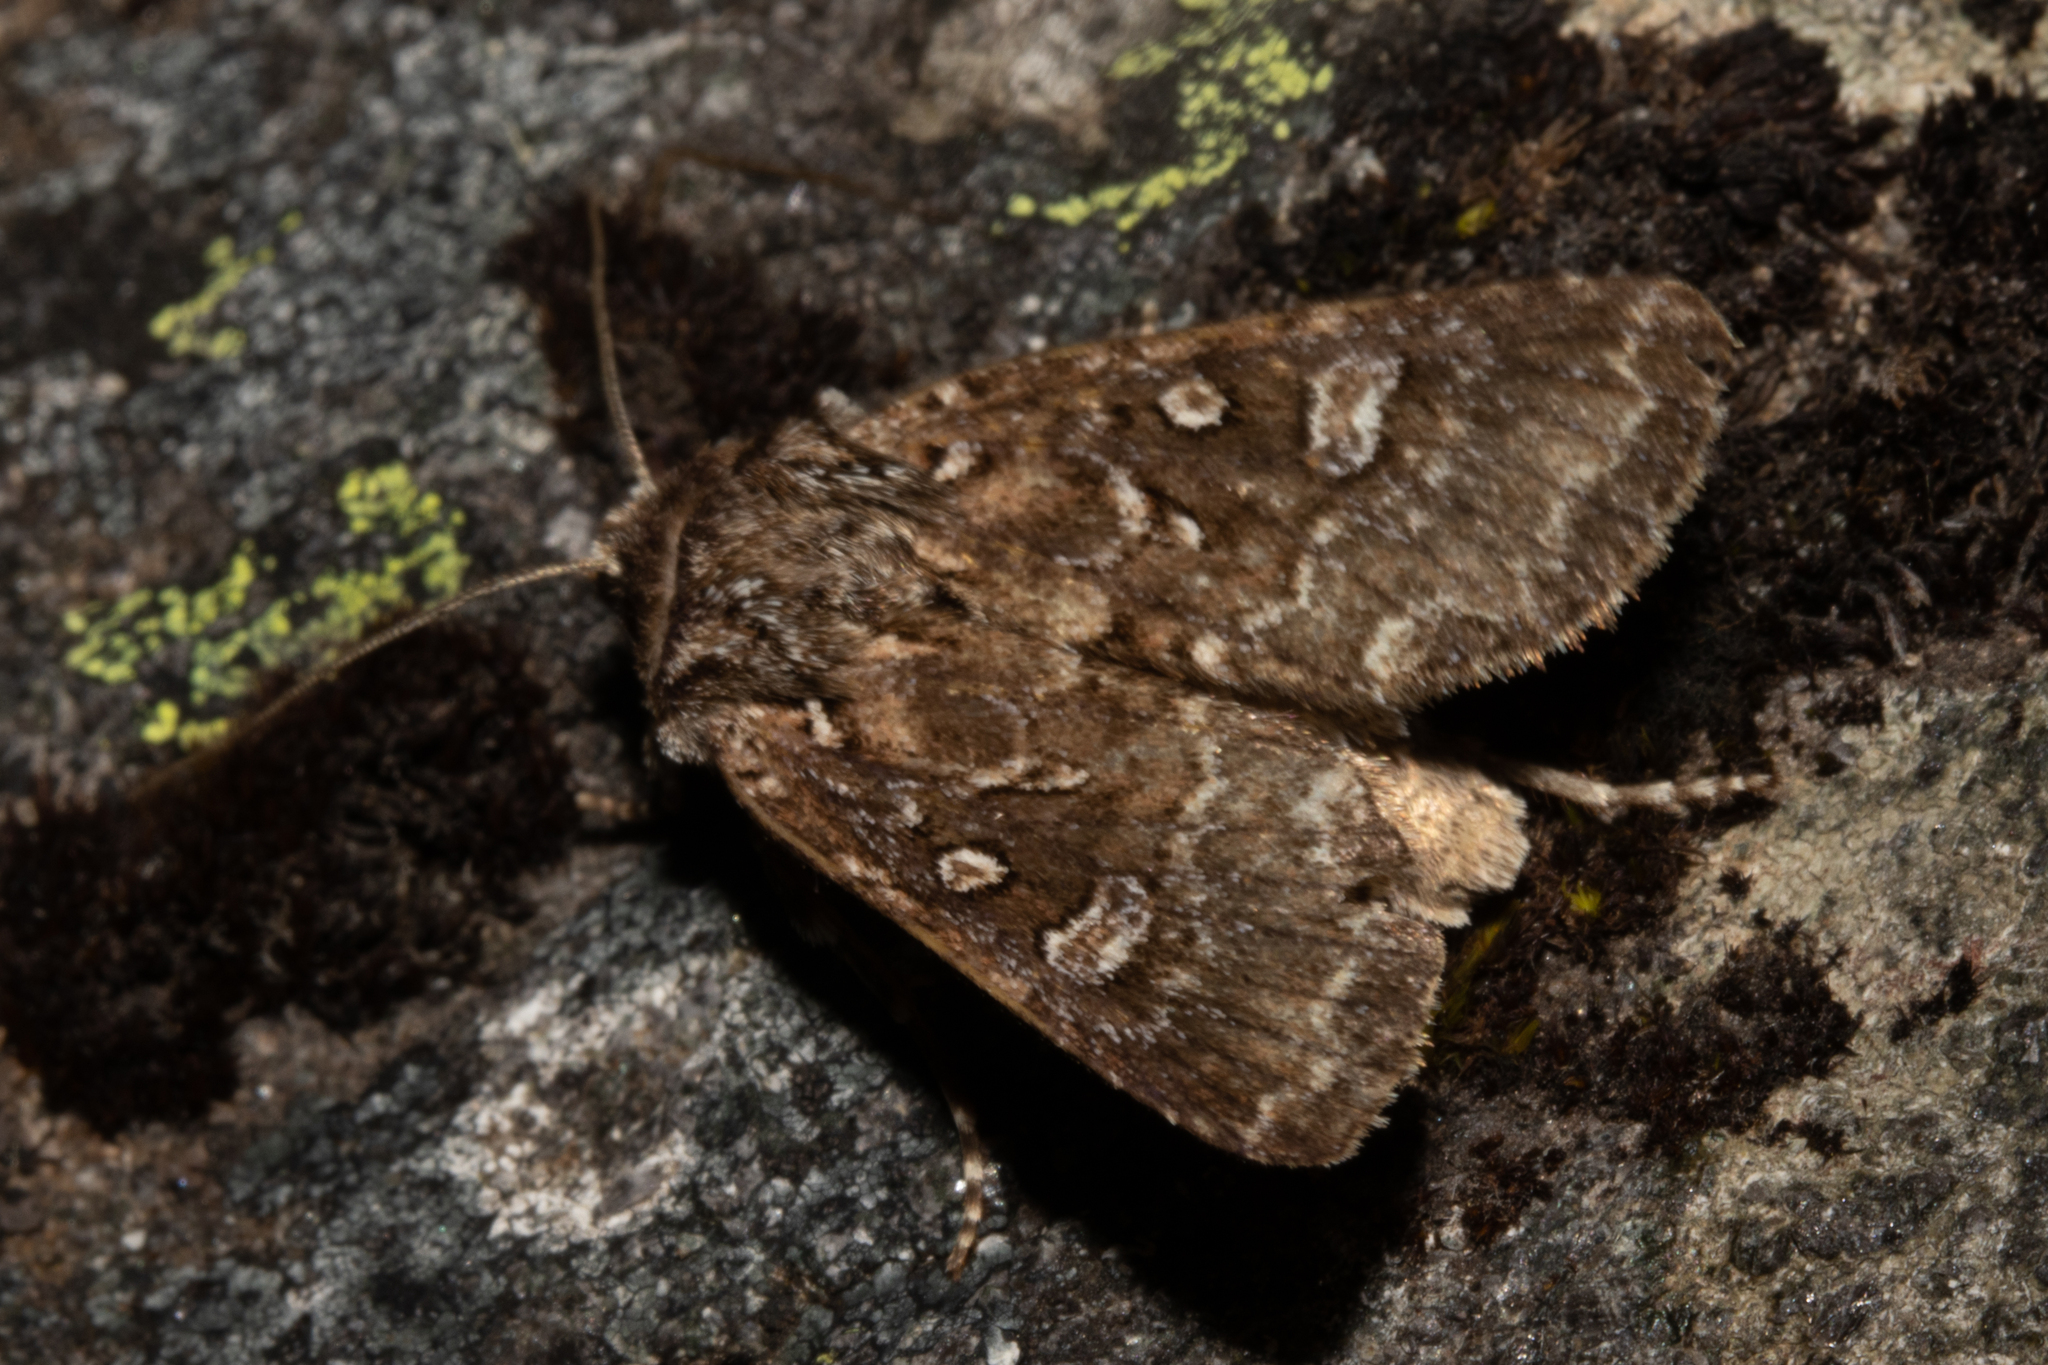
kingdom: Animalia
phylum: Arthropoda
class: Insecta
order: Lepidoptera
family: Noctuidae
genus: Ichneutica
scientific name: Ichneutica lithias
